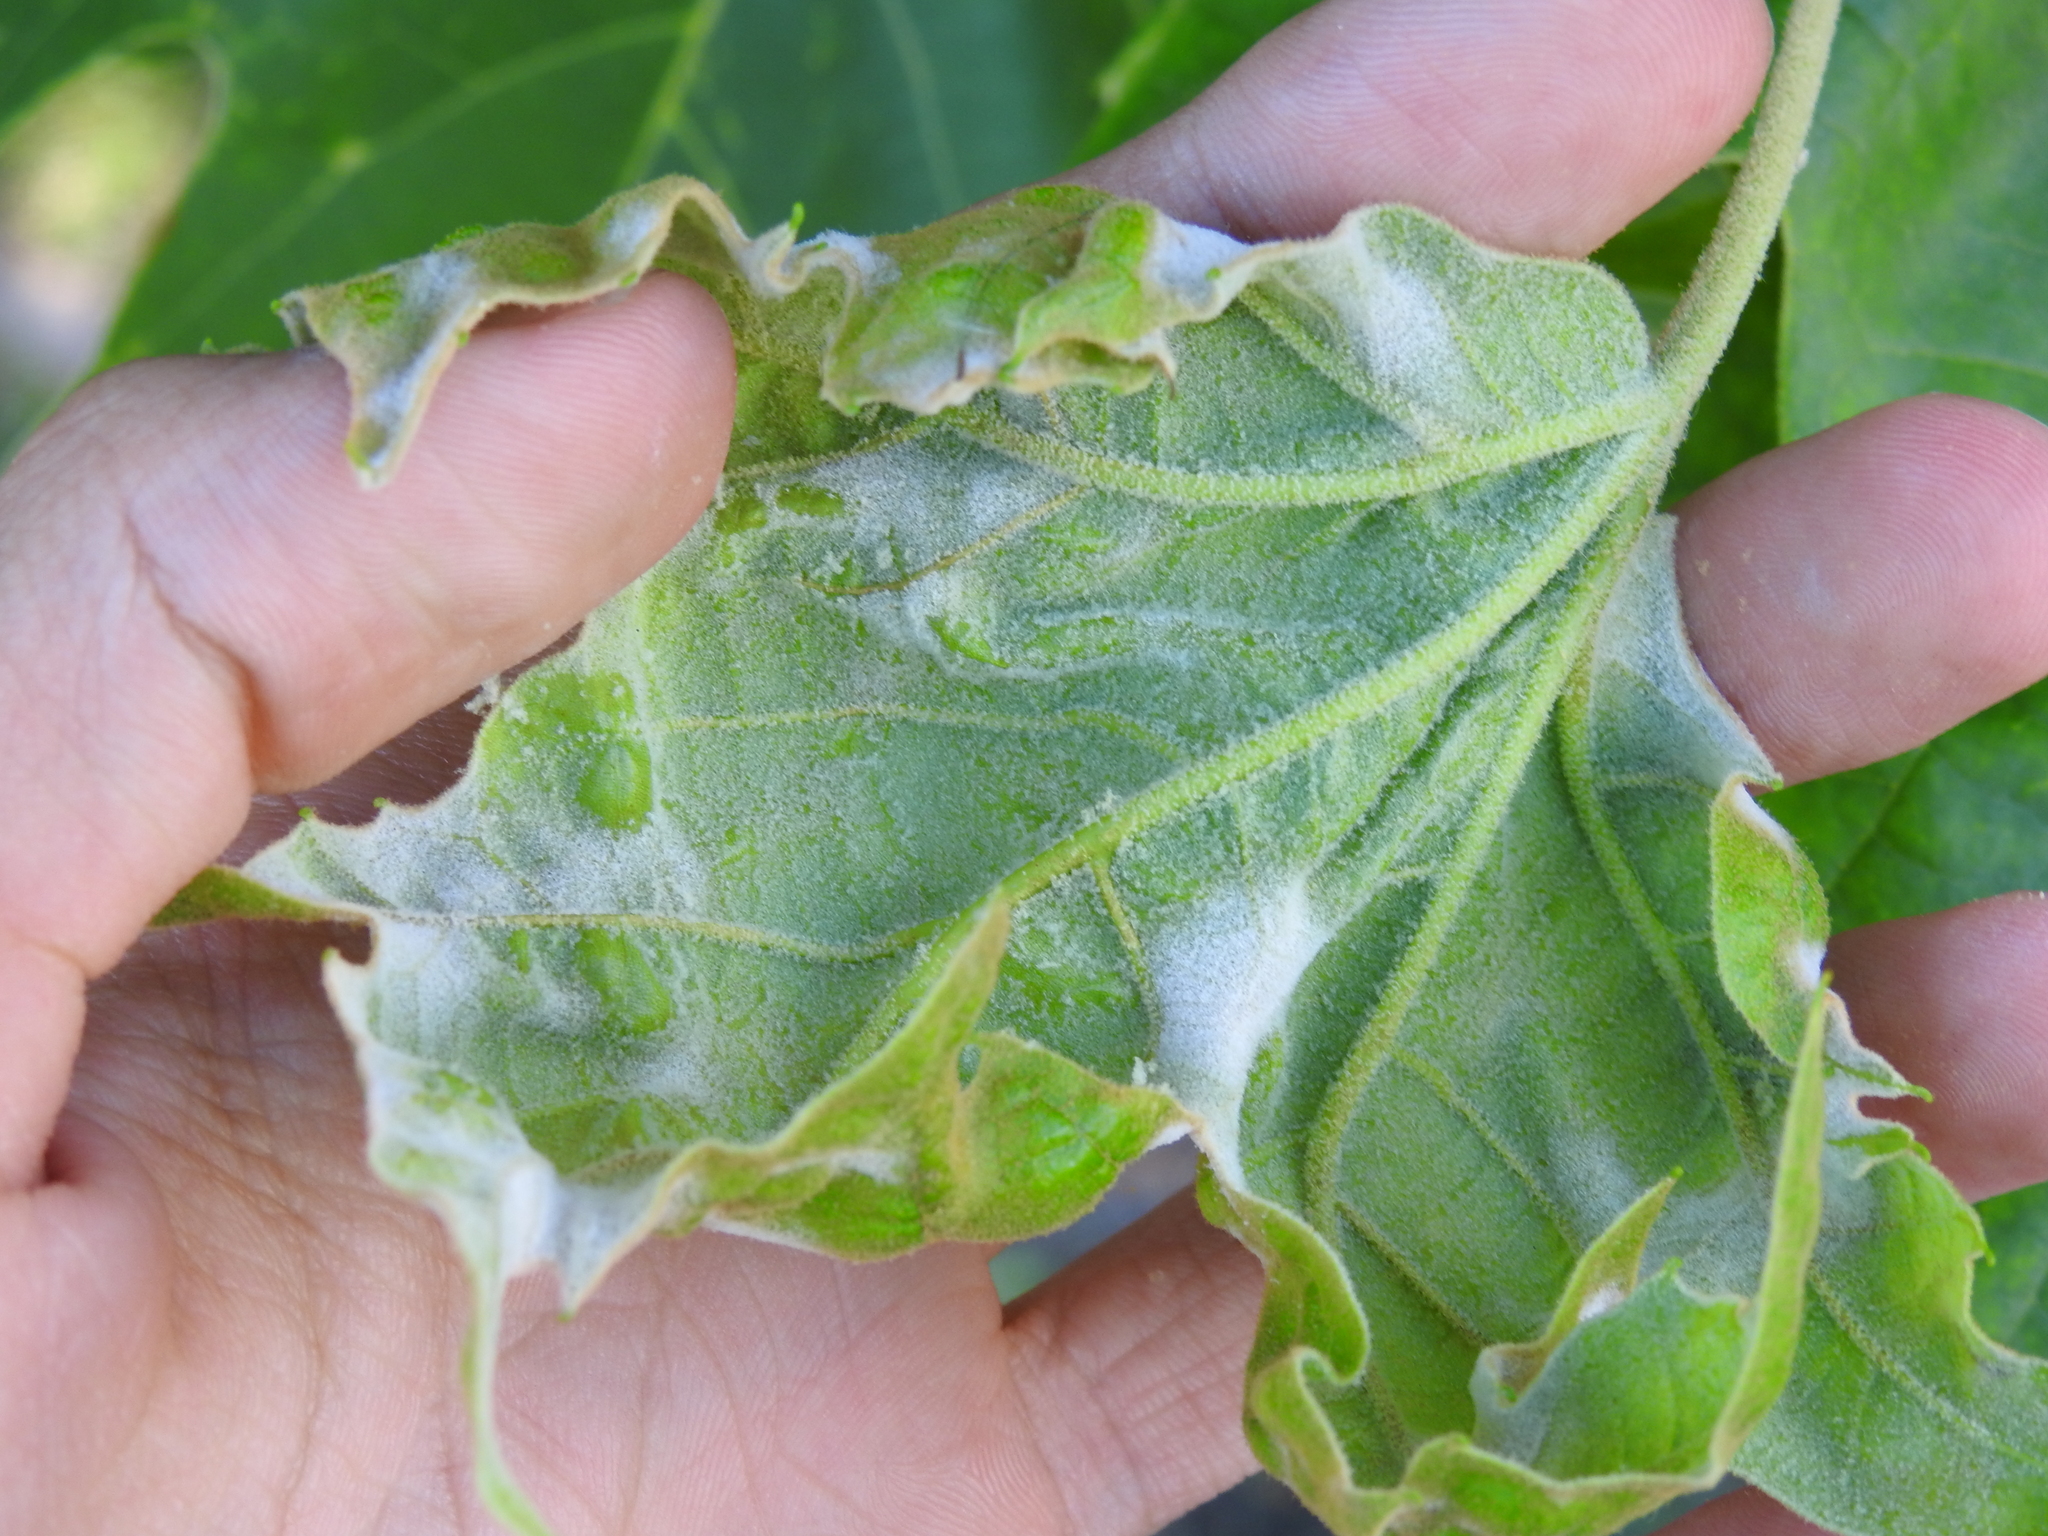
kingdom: Fungi
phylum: Ascomycota
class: Leotiomycetes
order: Helotiales
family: Erysiphaceae
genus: Erysiphe
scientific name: Erysiphe platani
